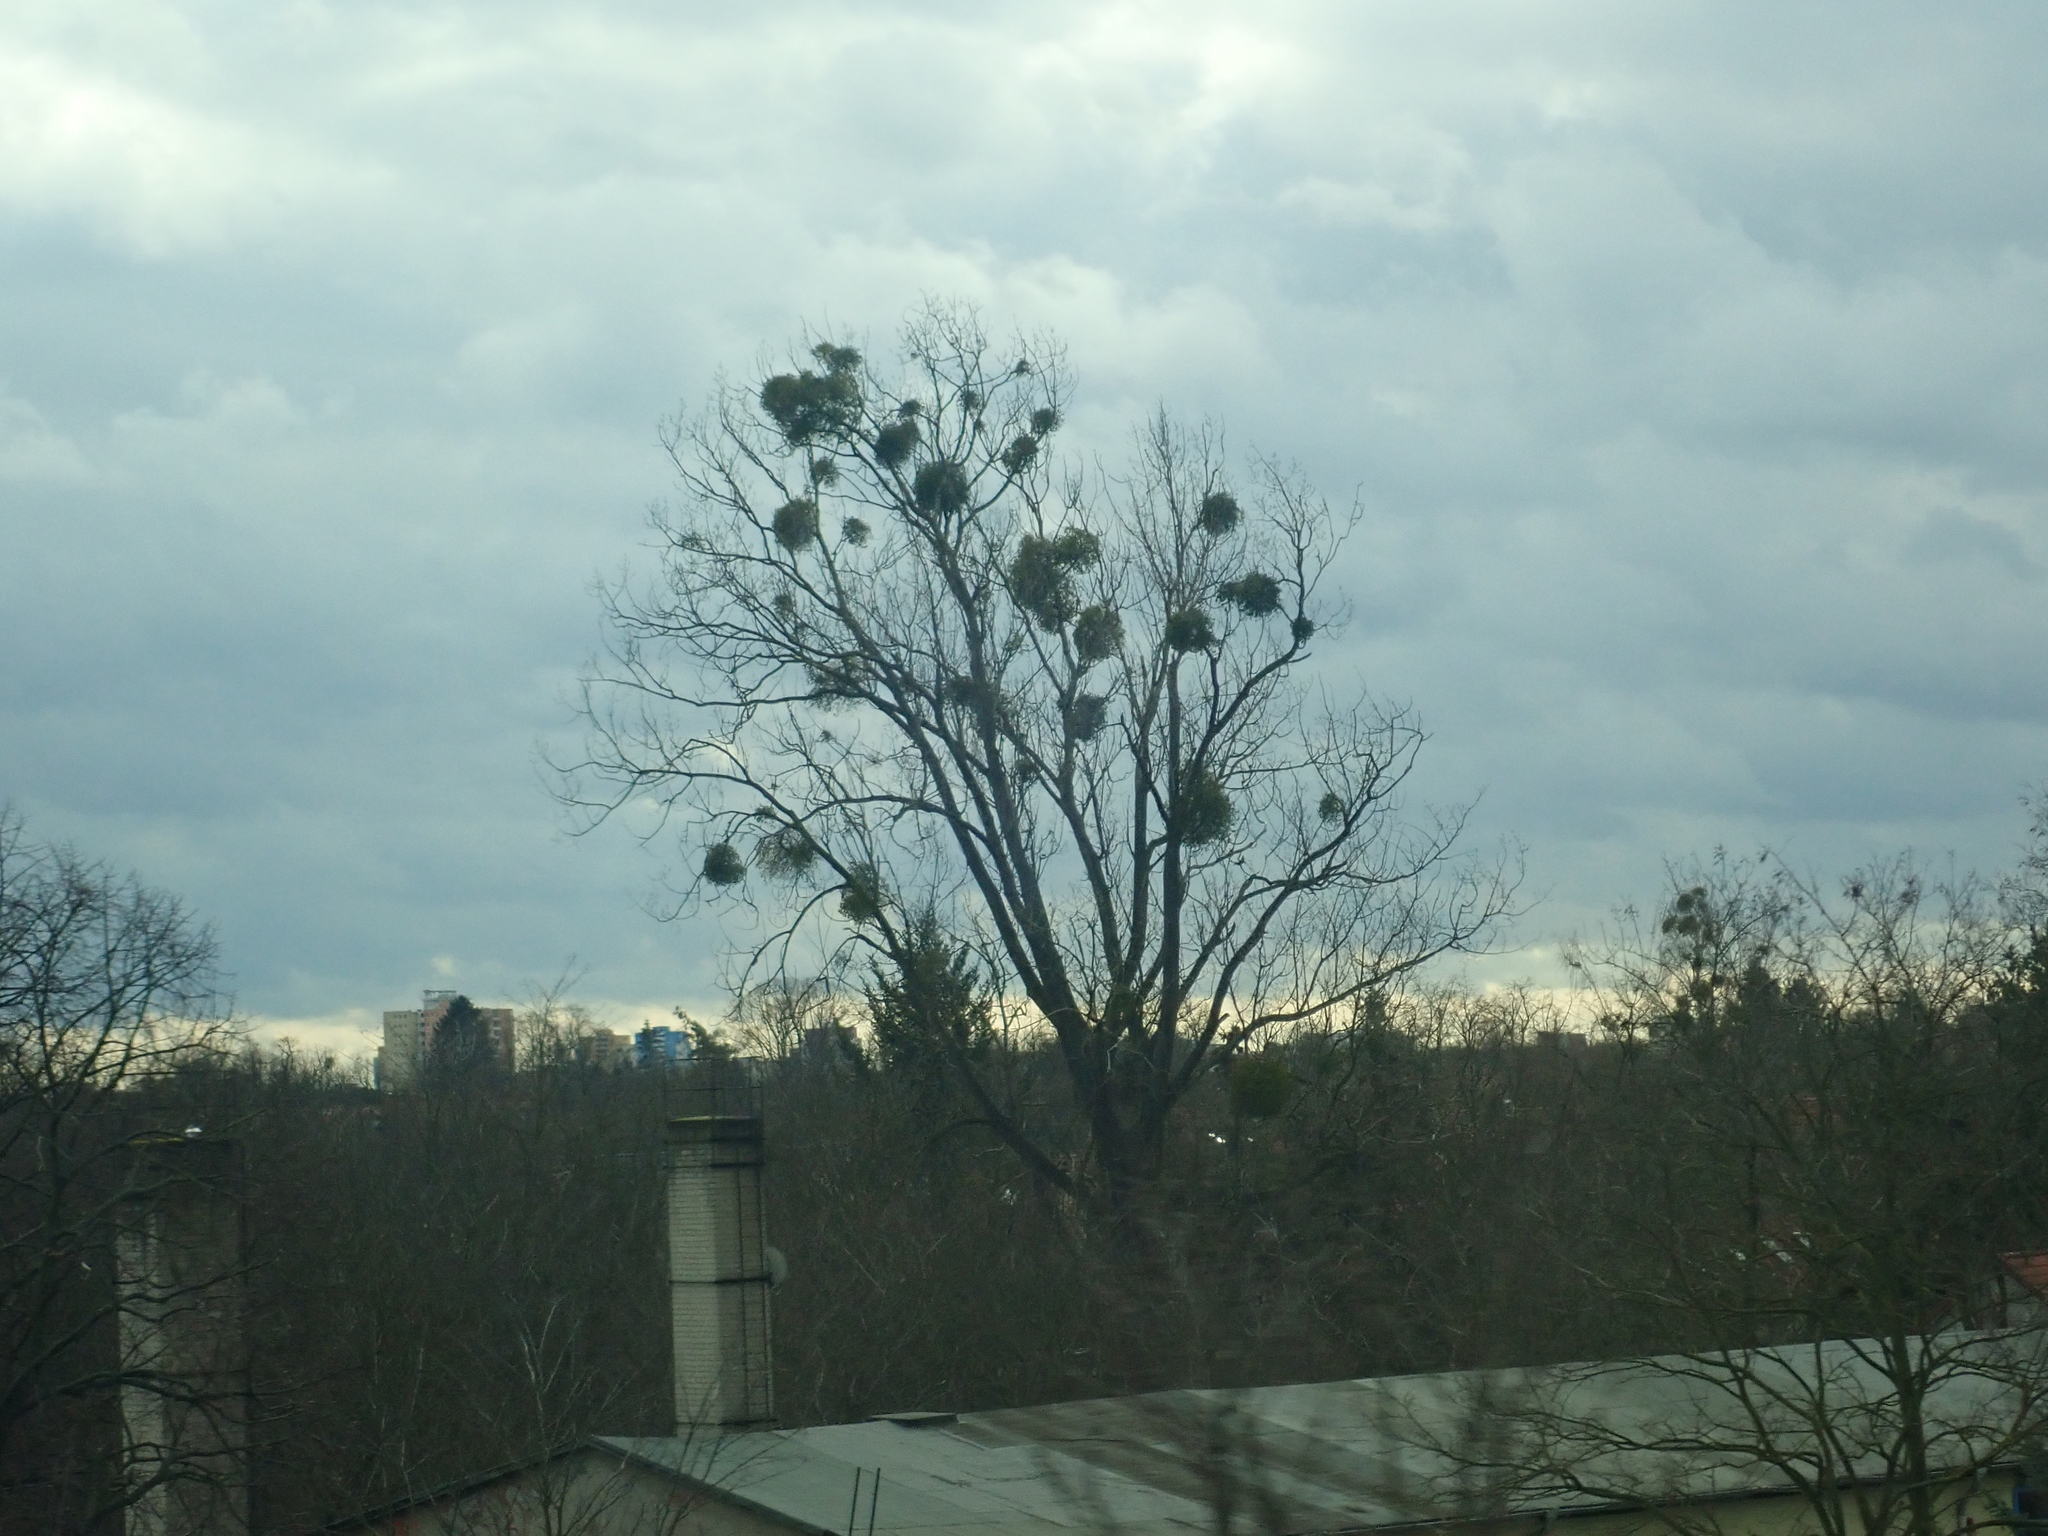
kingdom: Plantae
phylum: Tracheophyta
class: Magnoliopsida
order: Santalales
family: Viscaceae
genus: Viscum
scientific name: Viscum album
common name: Mistletoe
